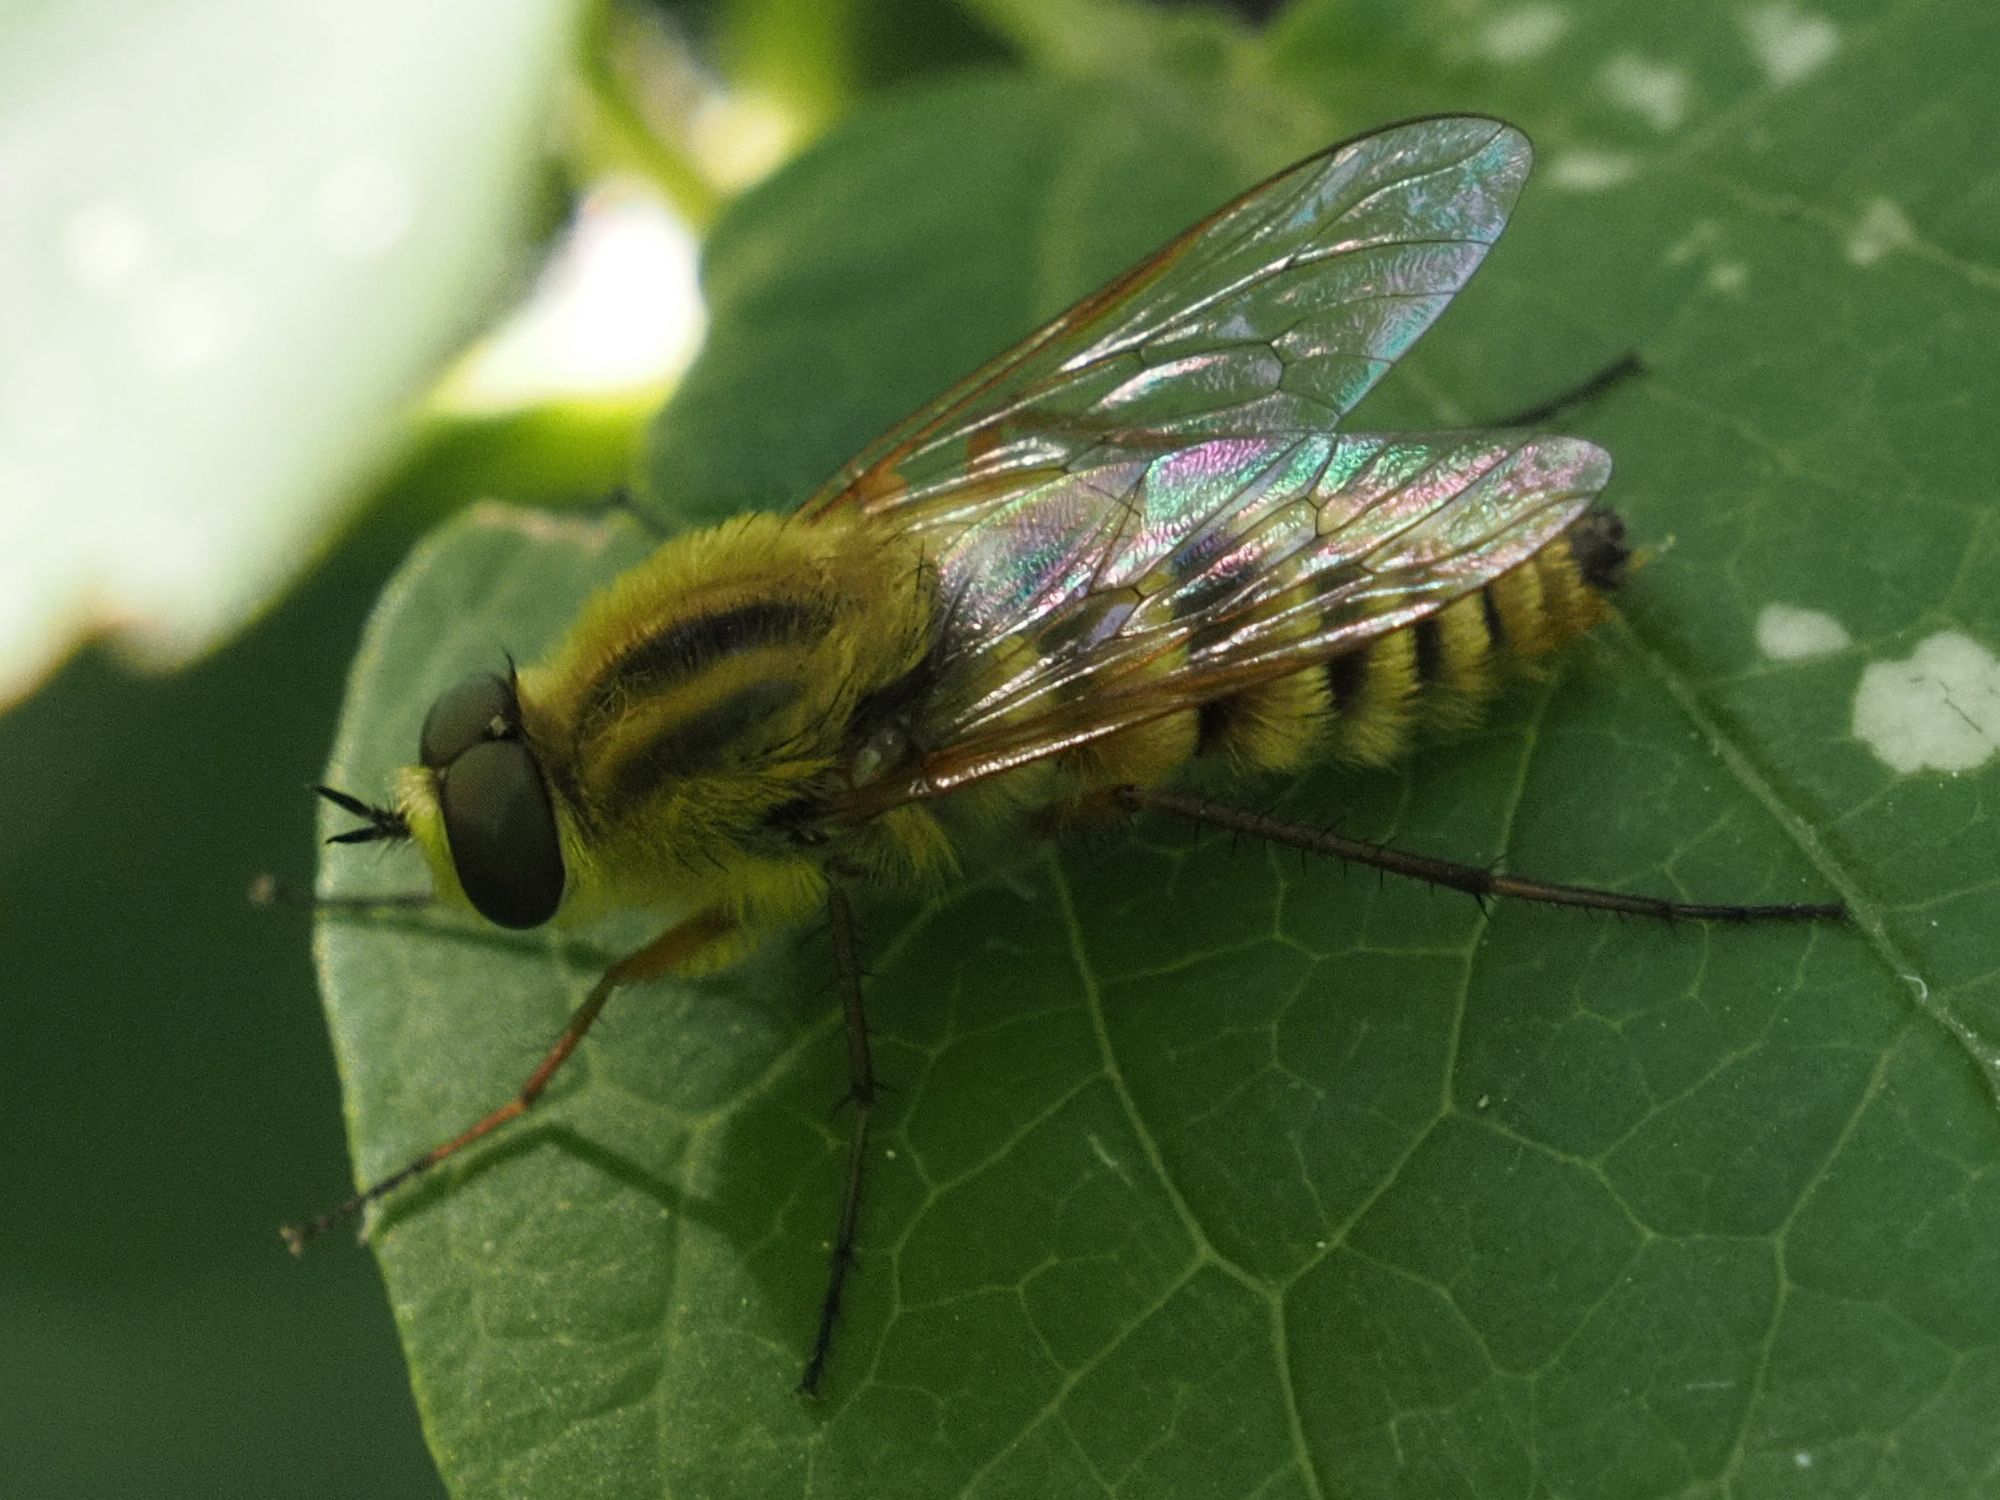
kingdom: Animalia
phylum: Arthropoda
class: Insecta
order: Diptera
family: Therevidae
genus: Thereva
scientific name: Thereva aurata
